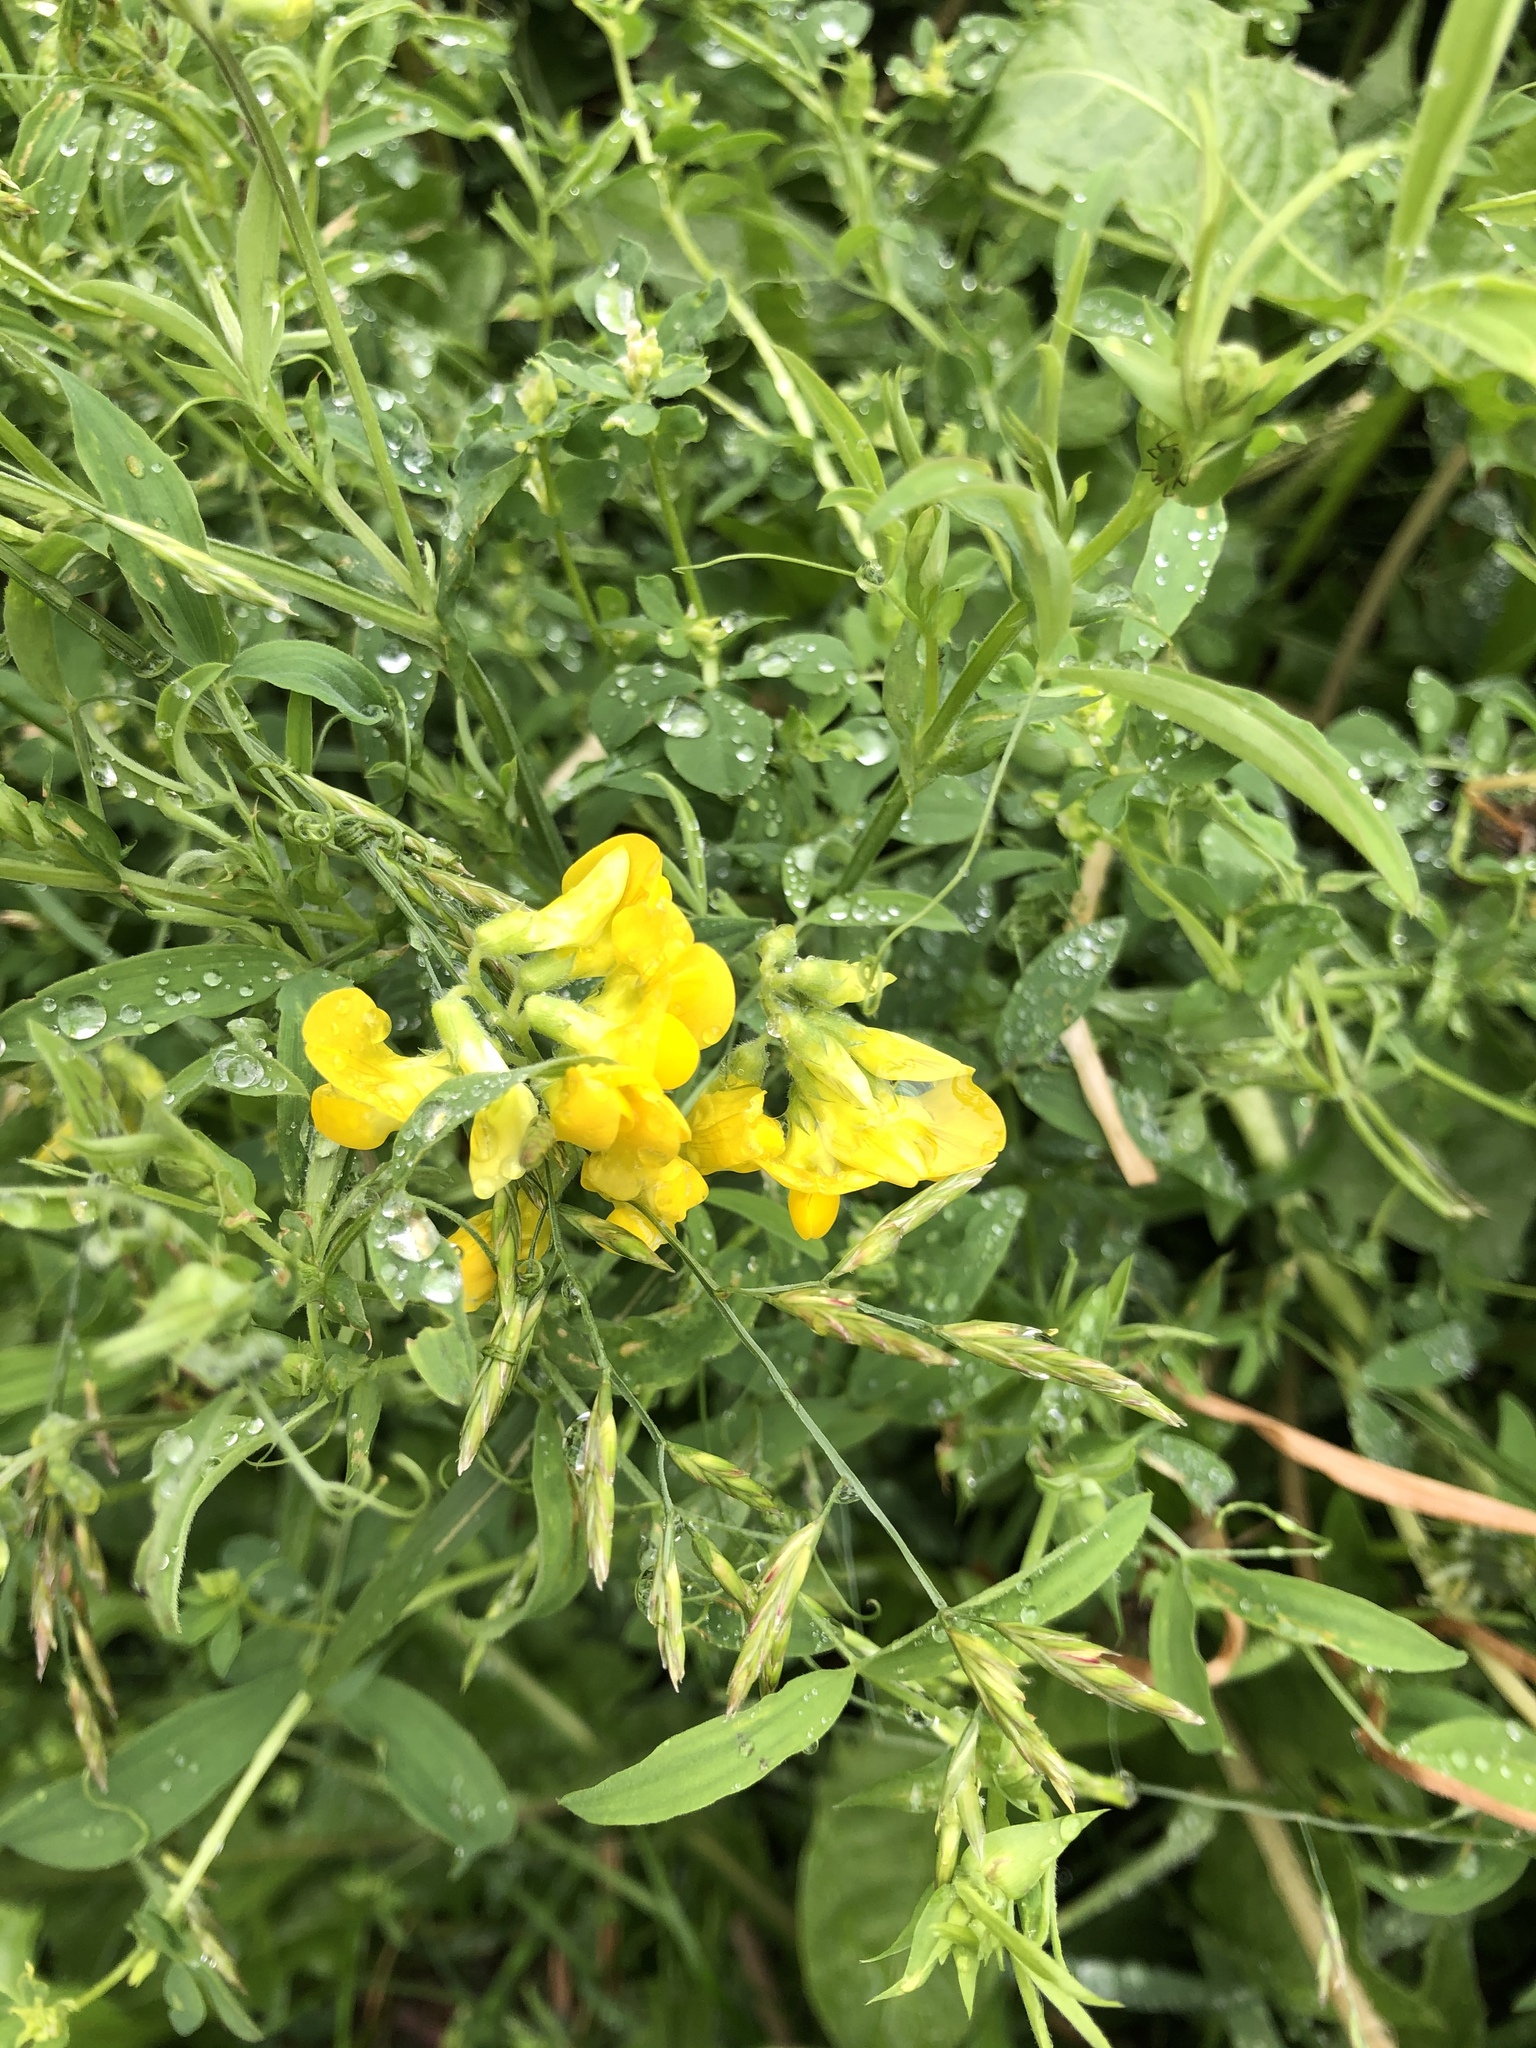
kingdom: Plantae
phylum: Tracheophyta
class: Magnoliopsida
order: Fabales
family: Fabaceae
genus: Lathyrus
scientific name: Lathyrus pratensis
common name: Meadow vetchling
